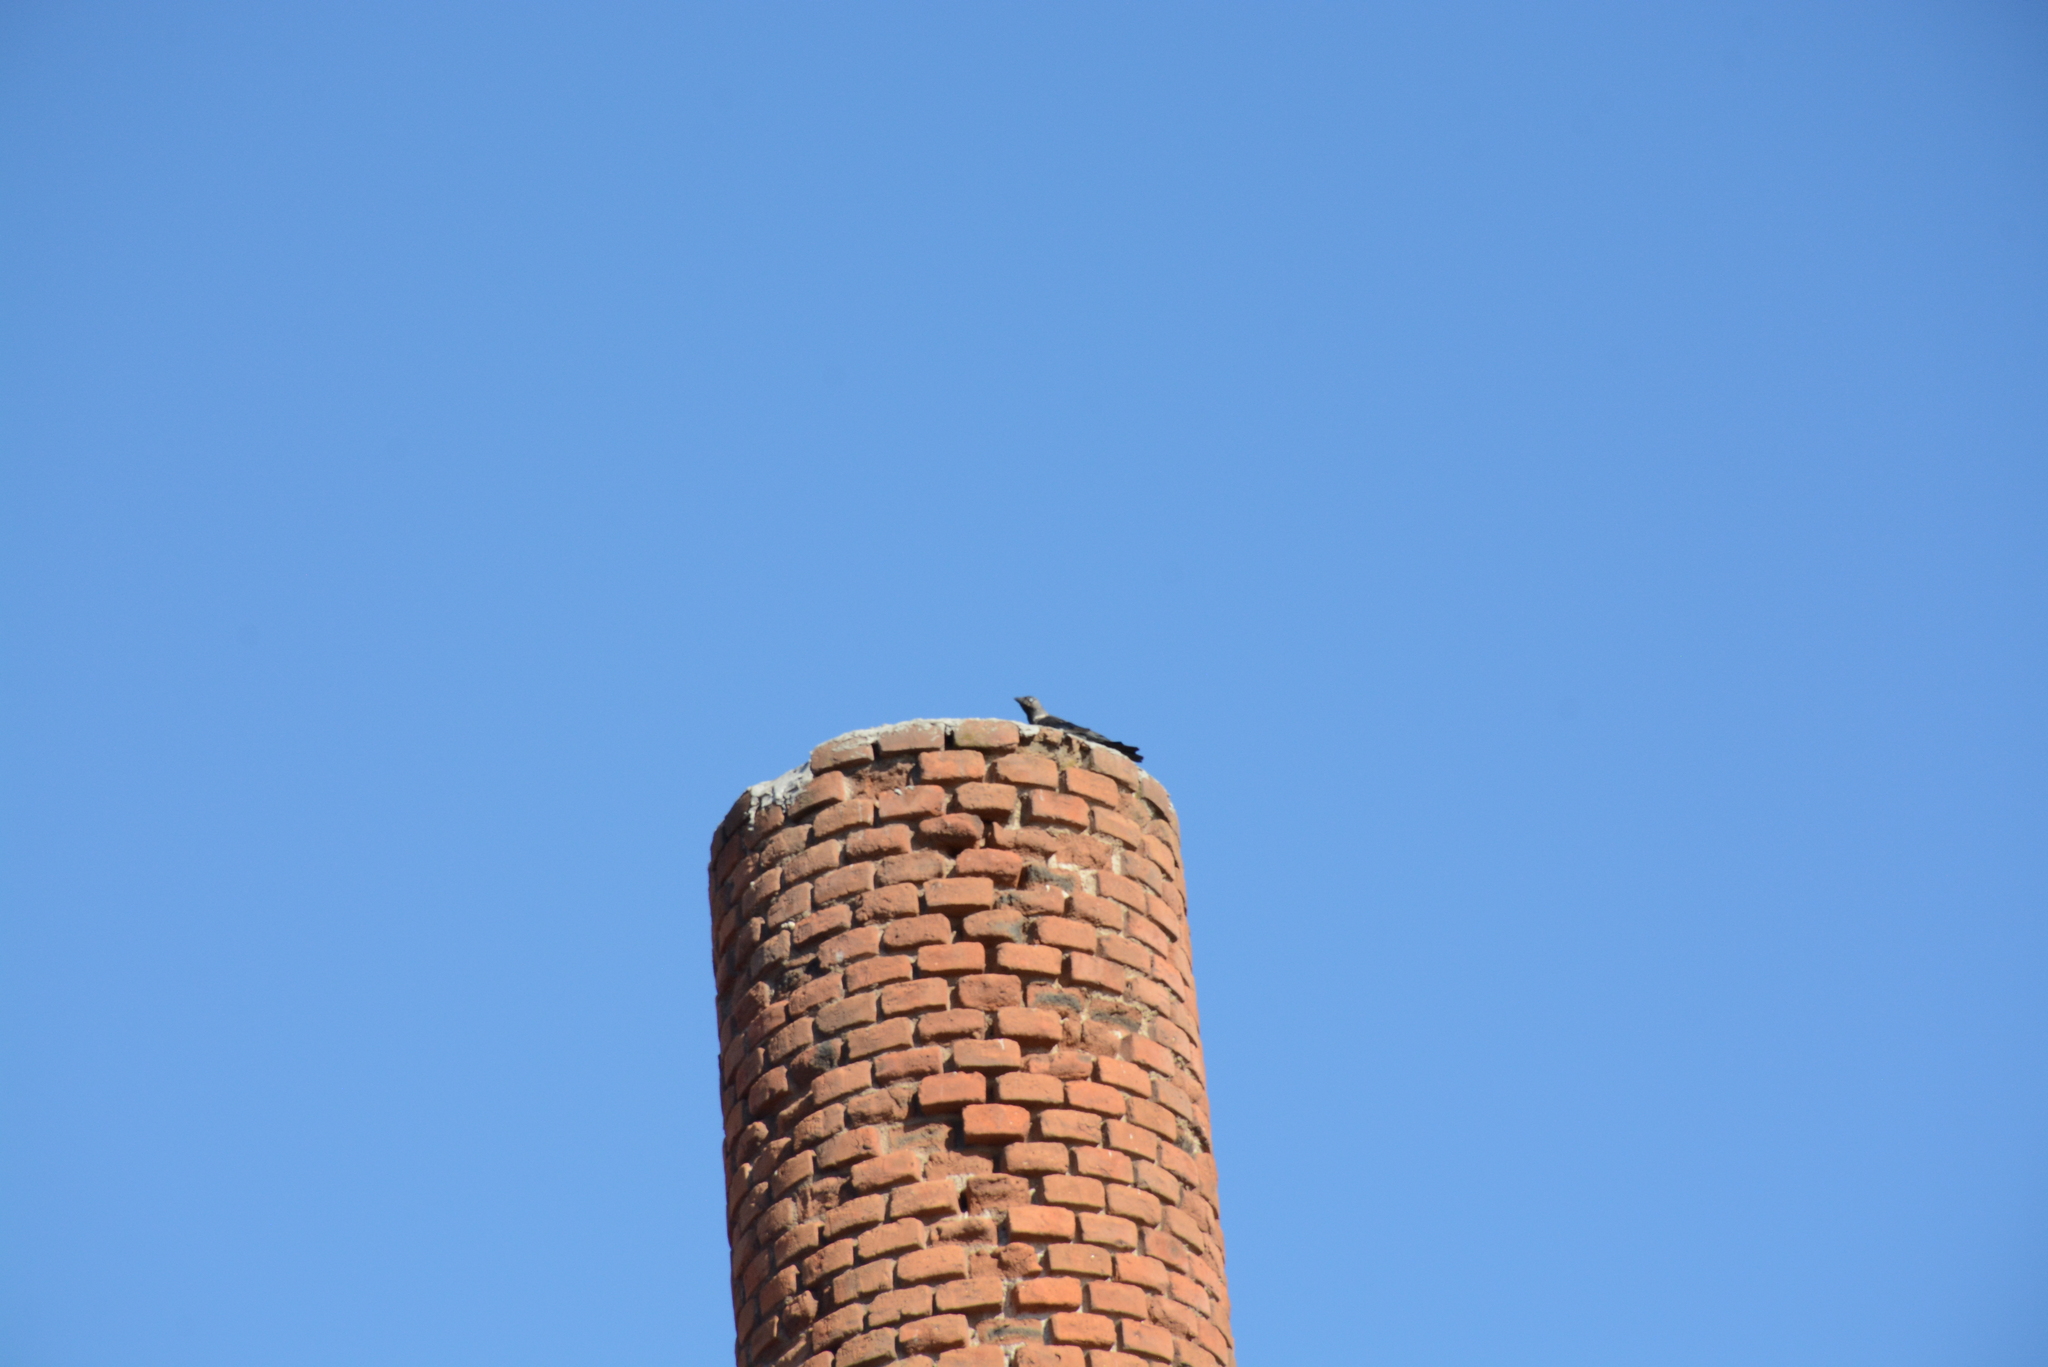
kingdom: Animalia
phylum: Chordata
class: Aves
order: Passeriformes
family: Corvidae
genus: Coloeus
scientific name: Coloeus monedula
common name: Western jackdaw
